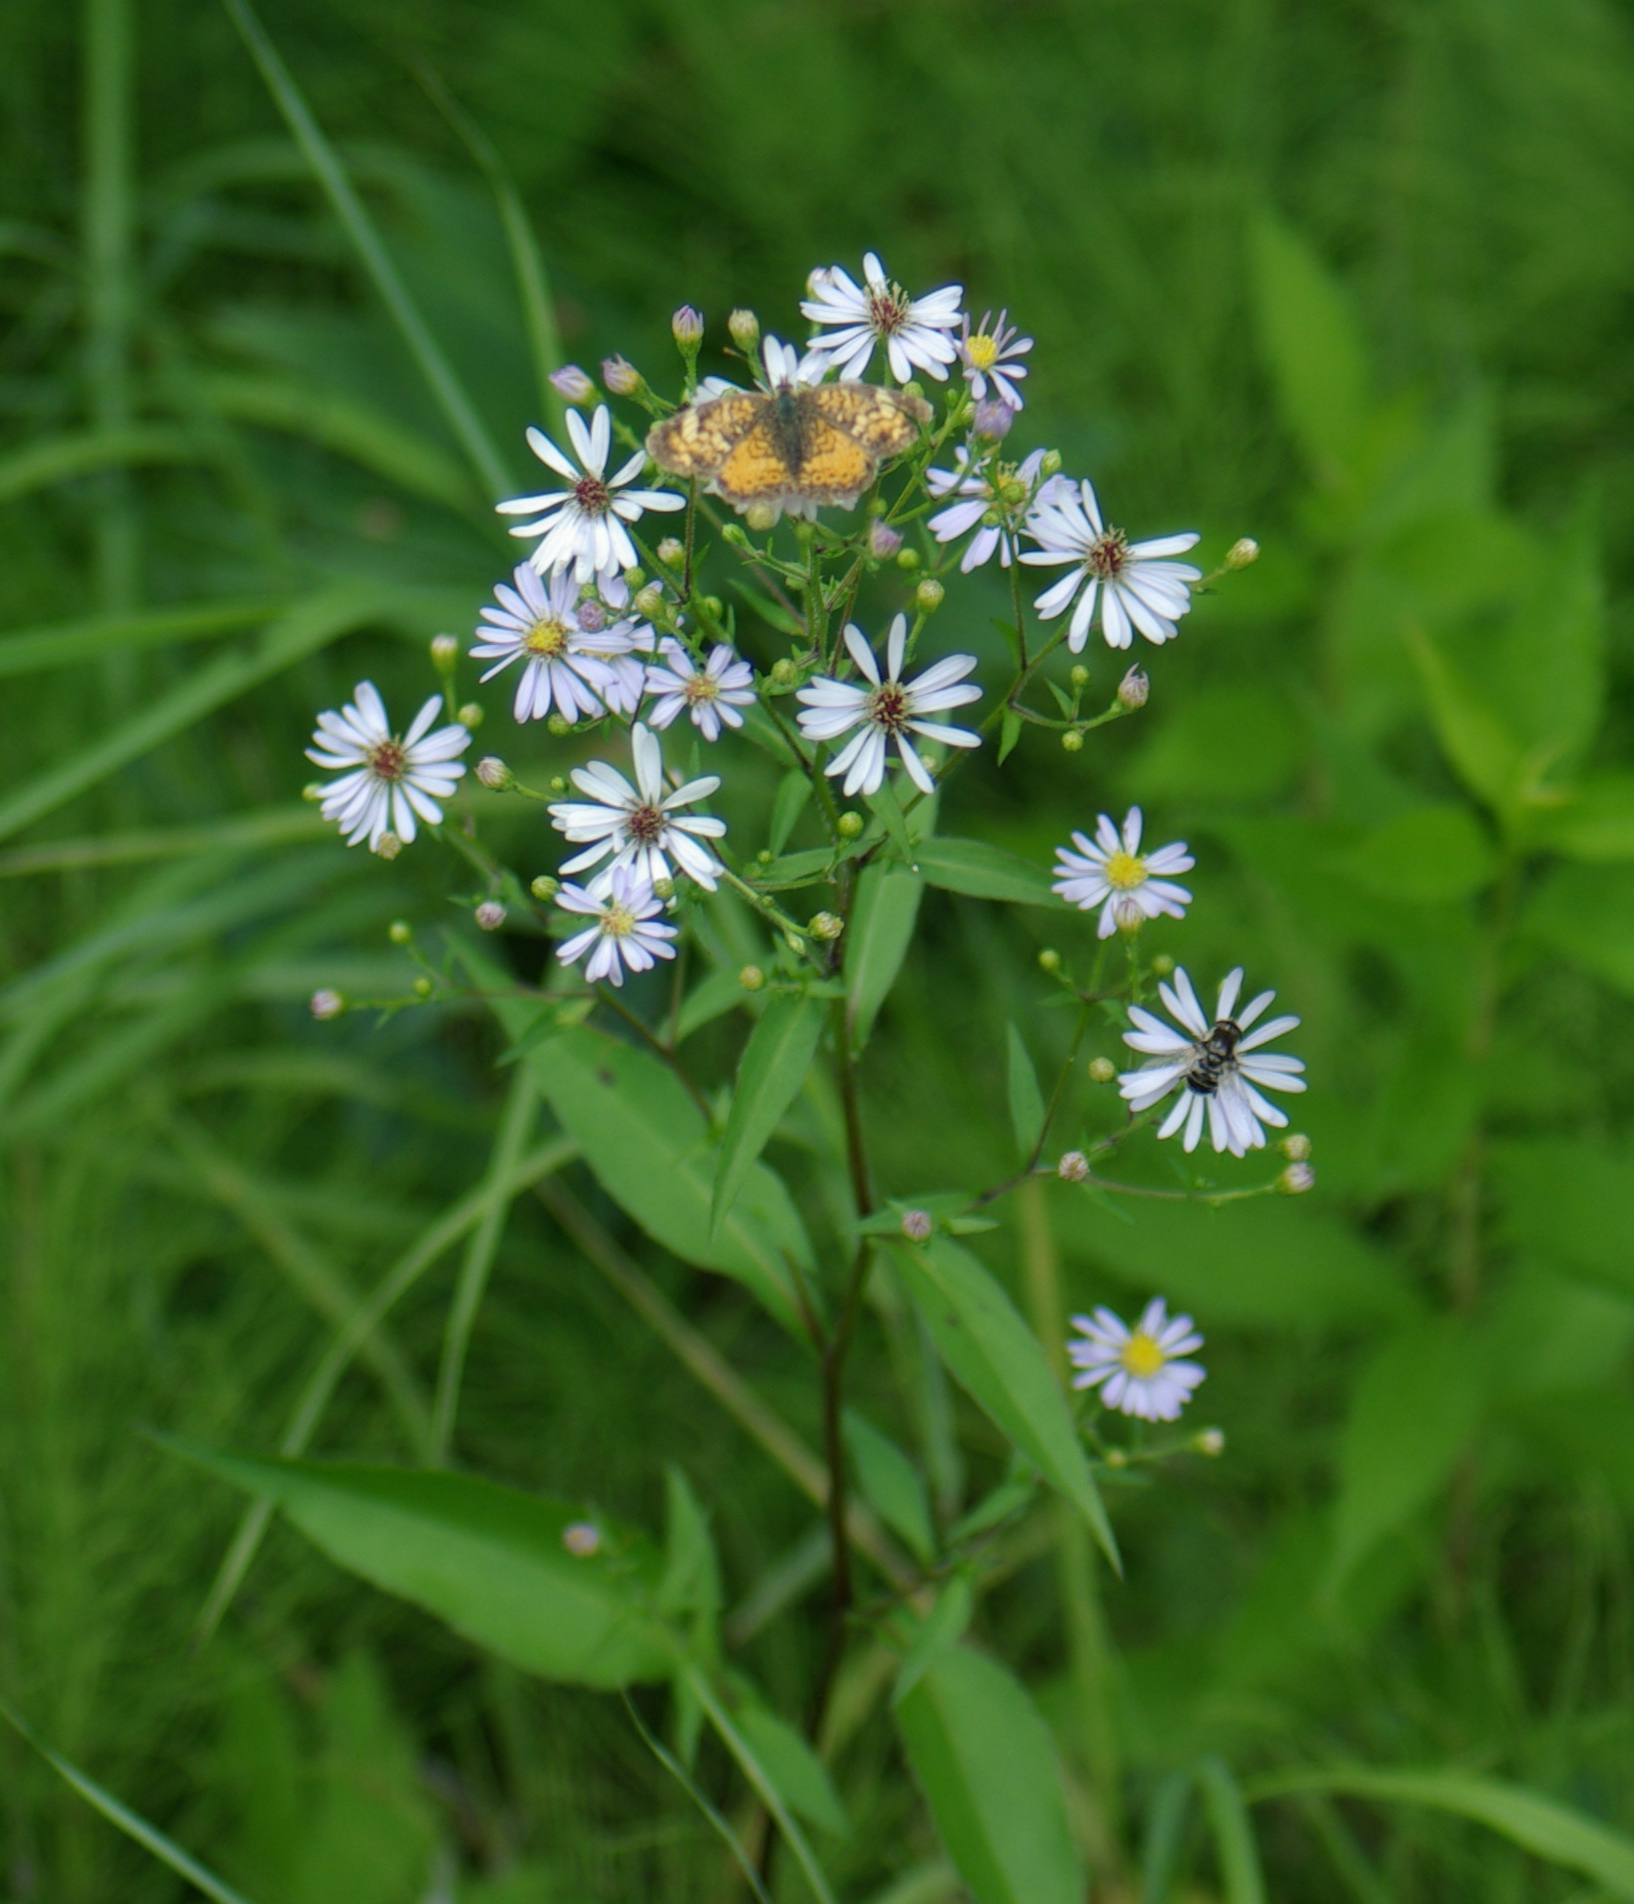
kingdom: Plantae
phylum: Tracheophyta
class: Magnoliopsida
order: Asterales
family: Asteraceae
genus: Symphyotrichum
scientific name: Symphyotrichum lanceolatum
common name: Panicled aster
